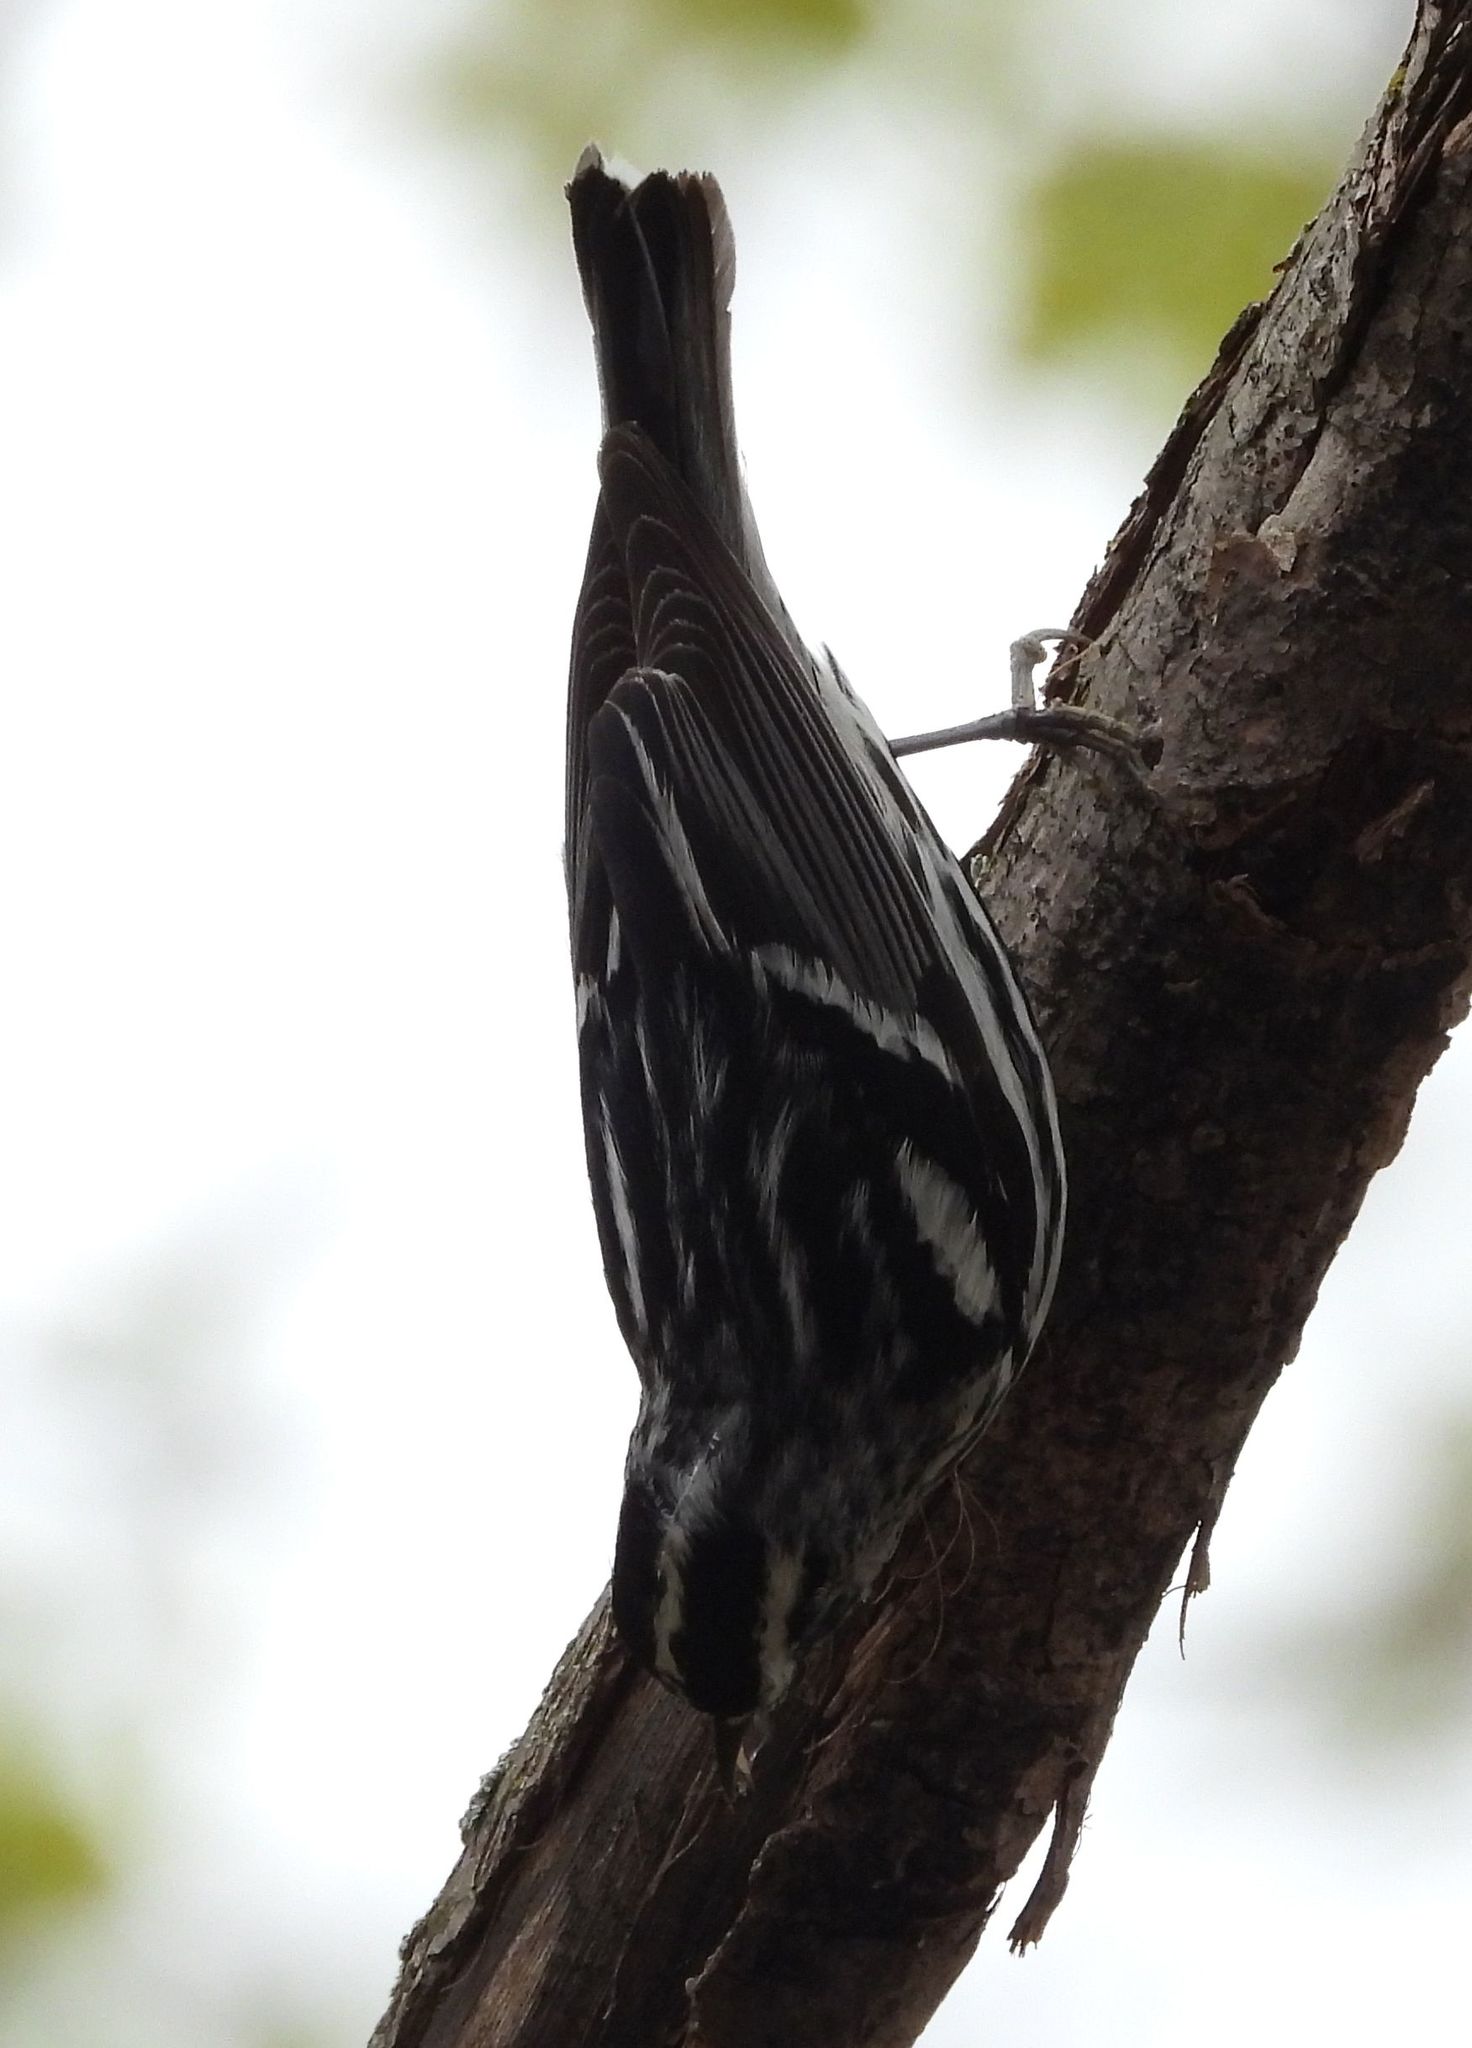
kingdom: Animalia
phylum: Chordata
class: Aves
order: Passeriformes
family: Parulidae
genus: Mniotilta
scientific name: Mniotilta varia
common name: Black-and-white warbler
